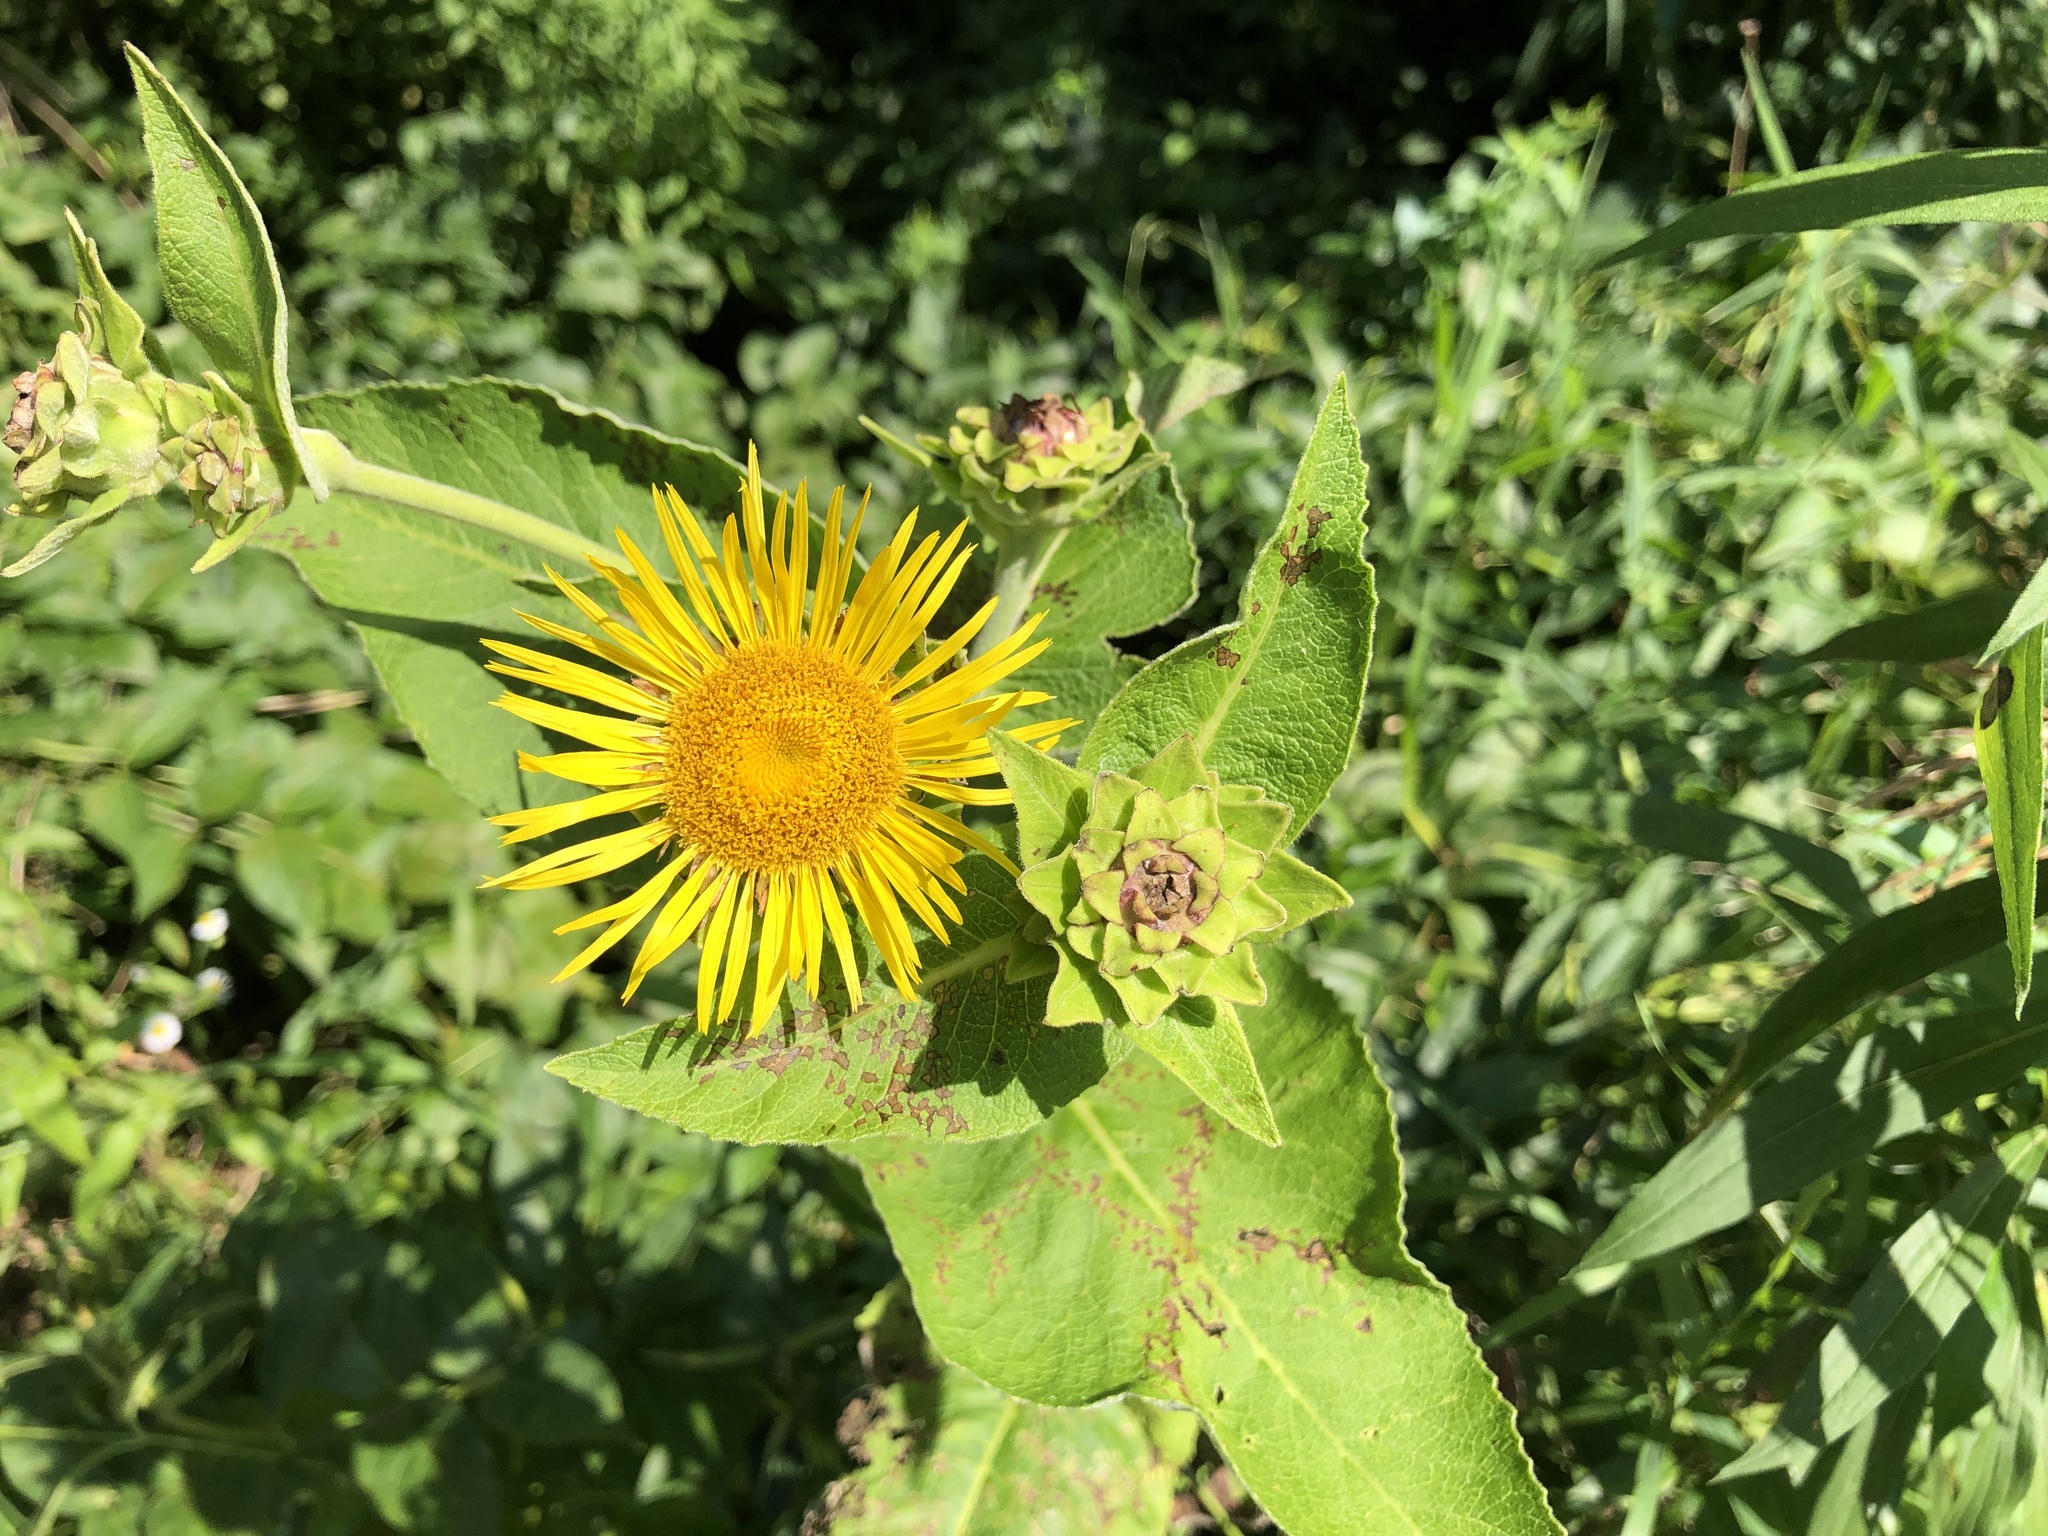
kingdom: Plantae
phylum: Tracheophyta
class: Magnoliopsida
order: Asterales
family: Asteraceae
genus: Inula
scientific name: Inula helenium
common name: Elecampane
